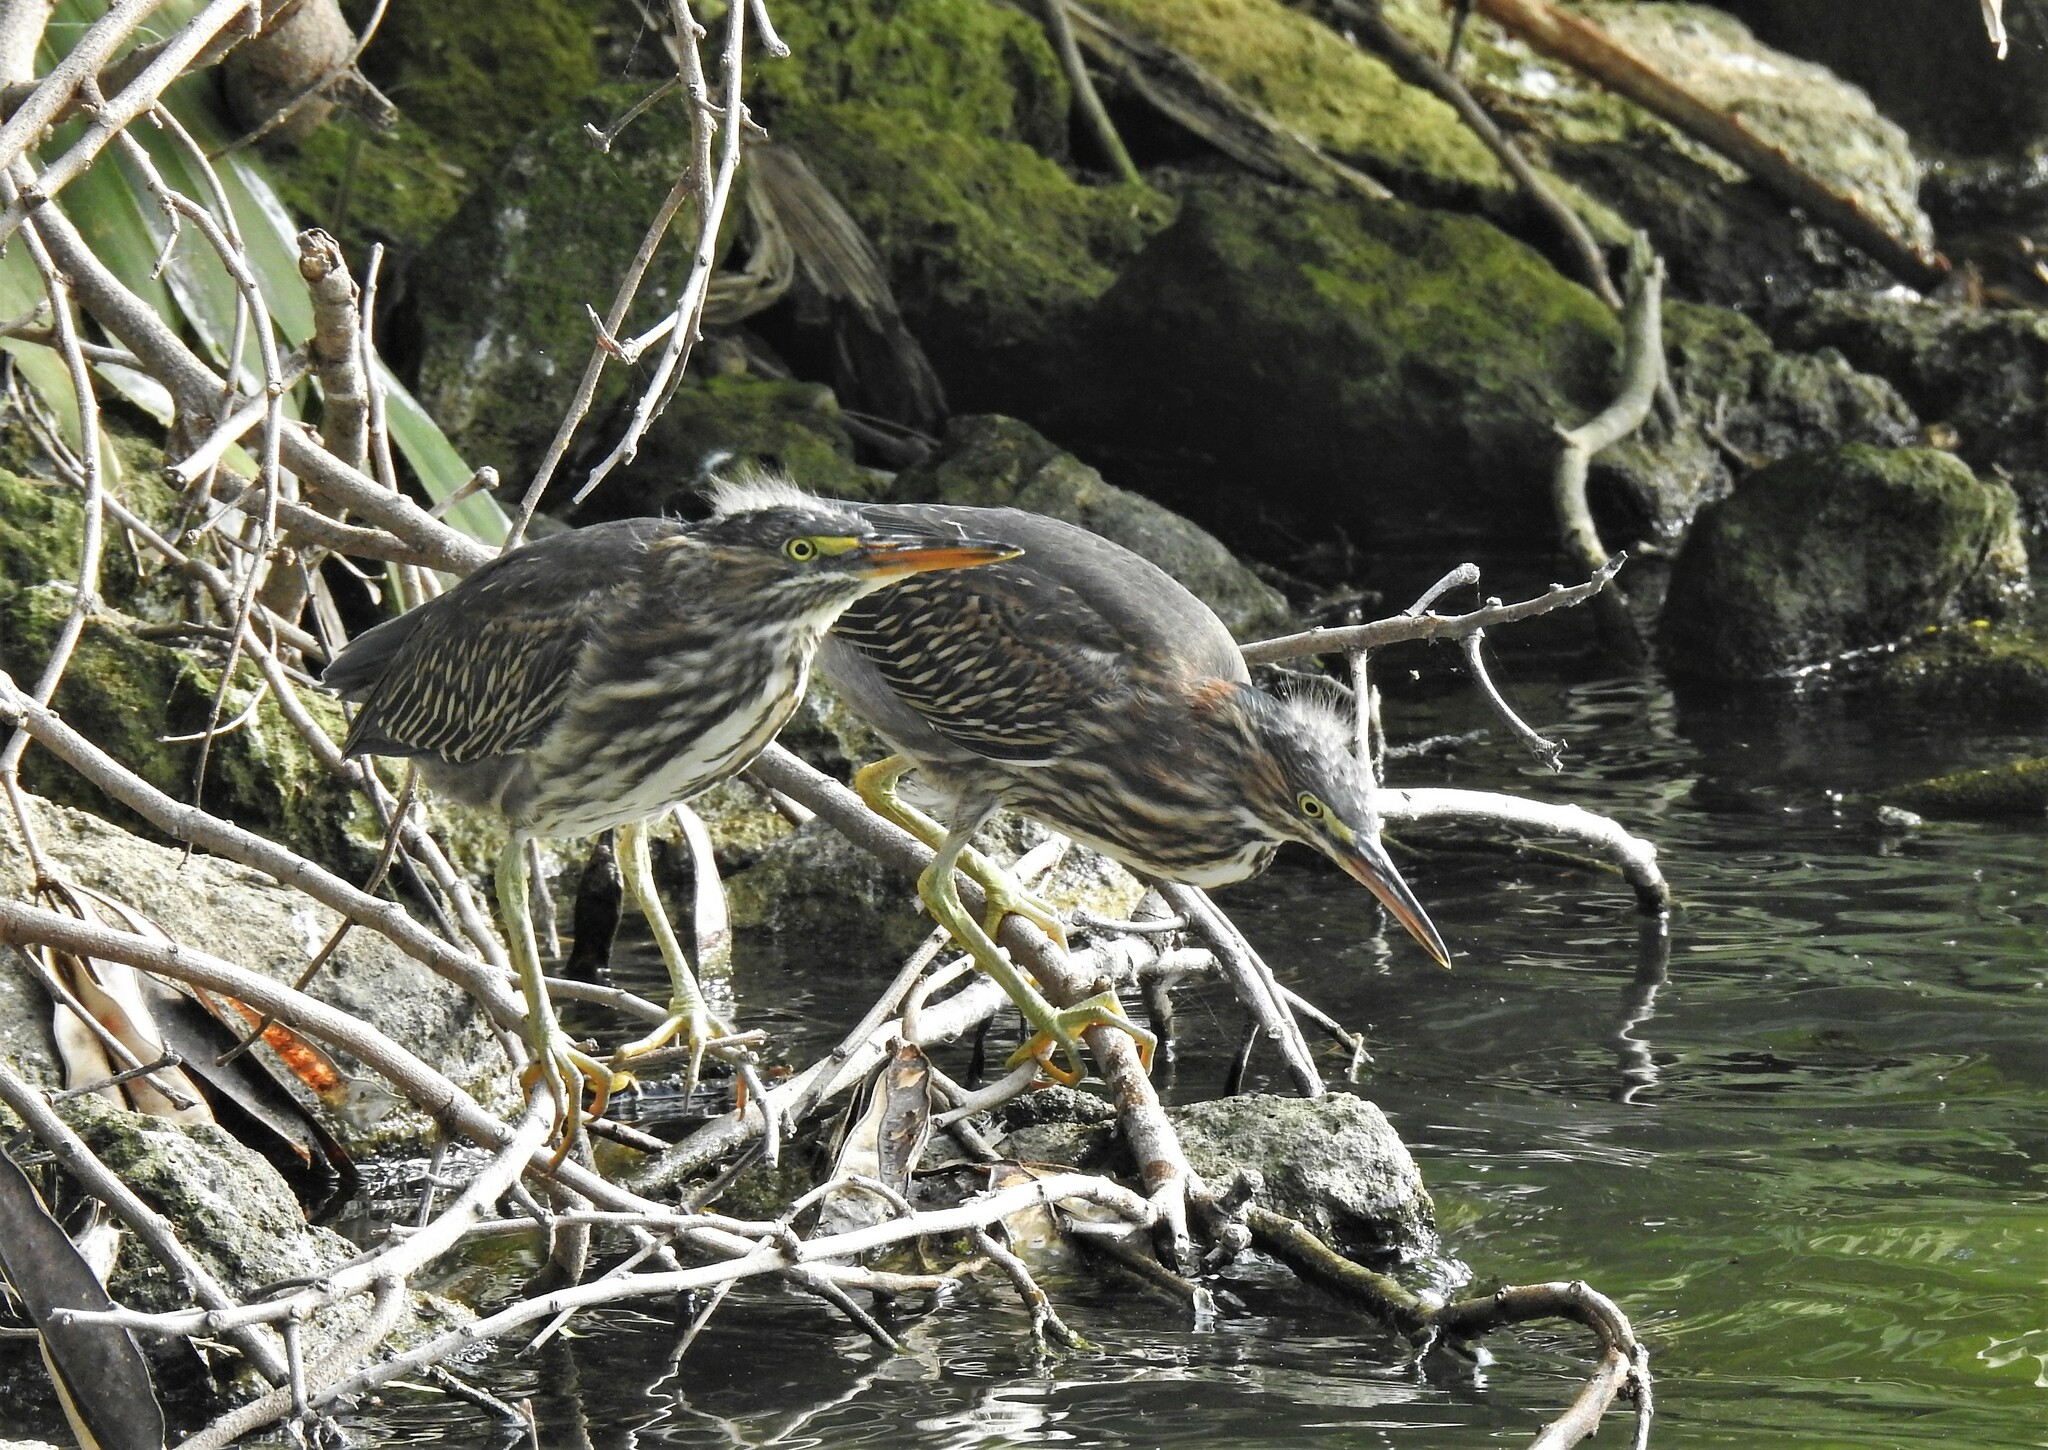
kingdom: Animalia
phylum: Chordata
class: Aves
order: Pelecaniformes
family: Ardeidae
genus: Butorides
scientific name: Butorides virescens
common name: Green heron
